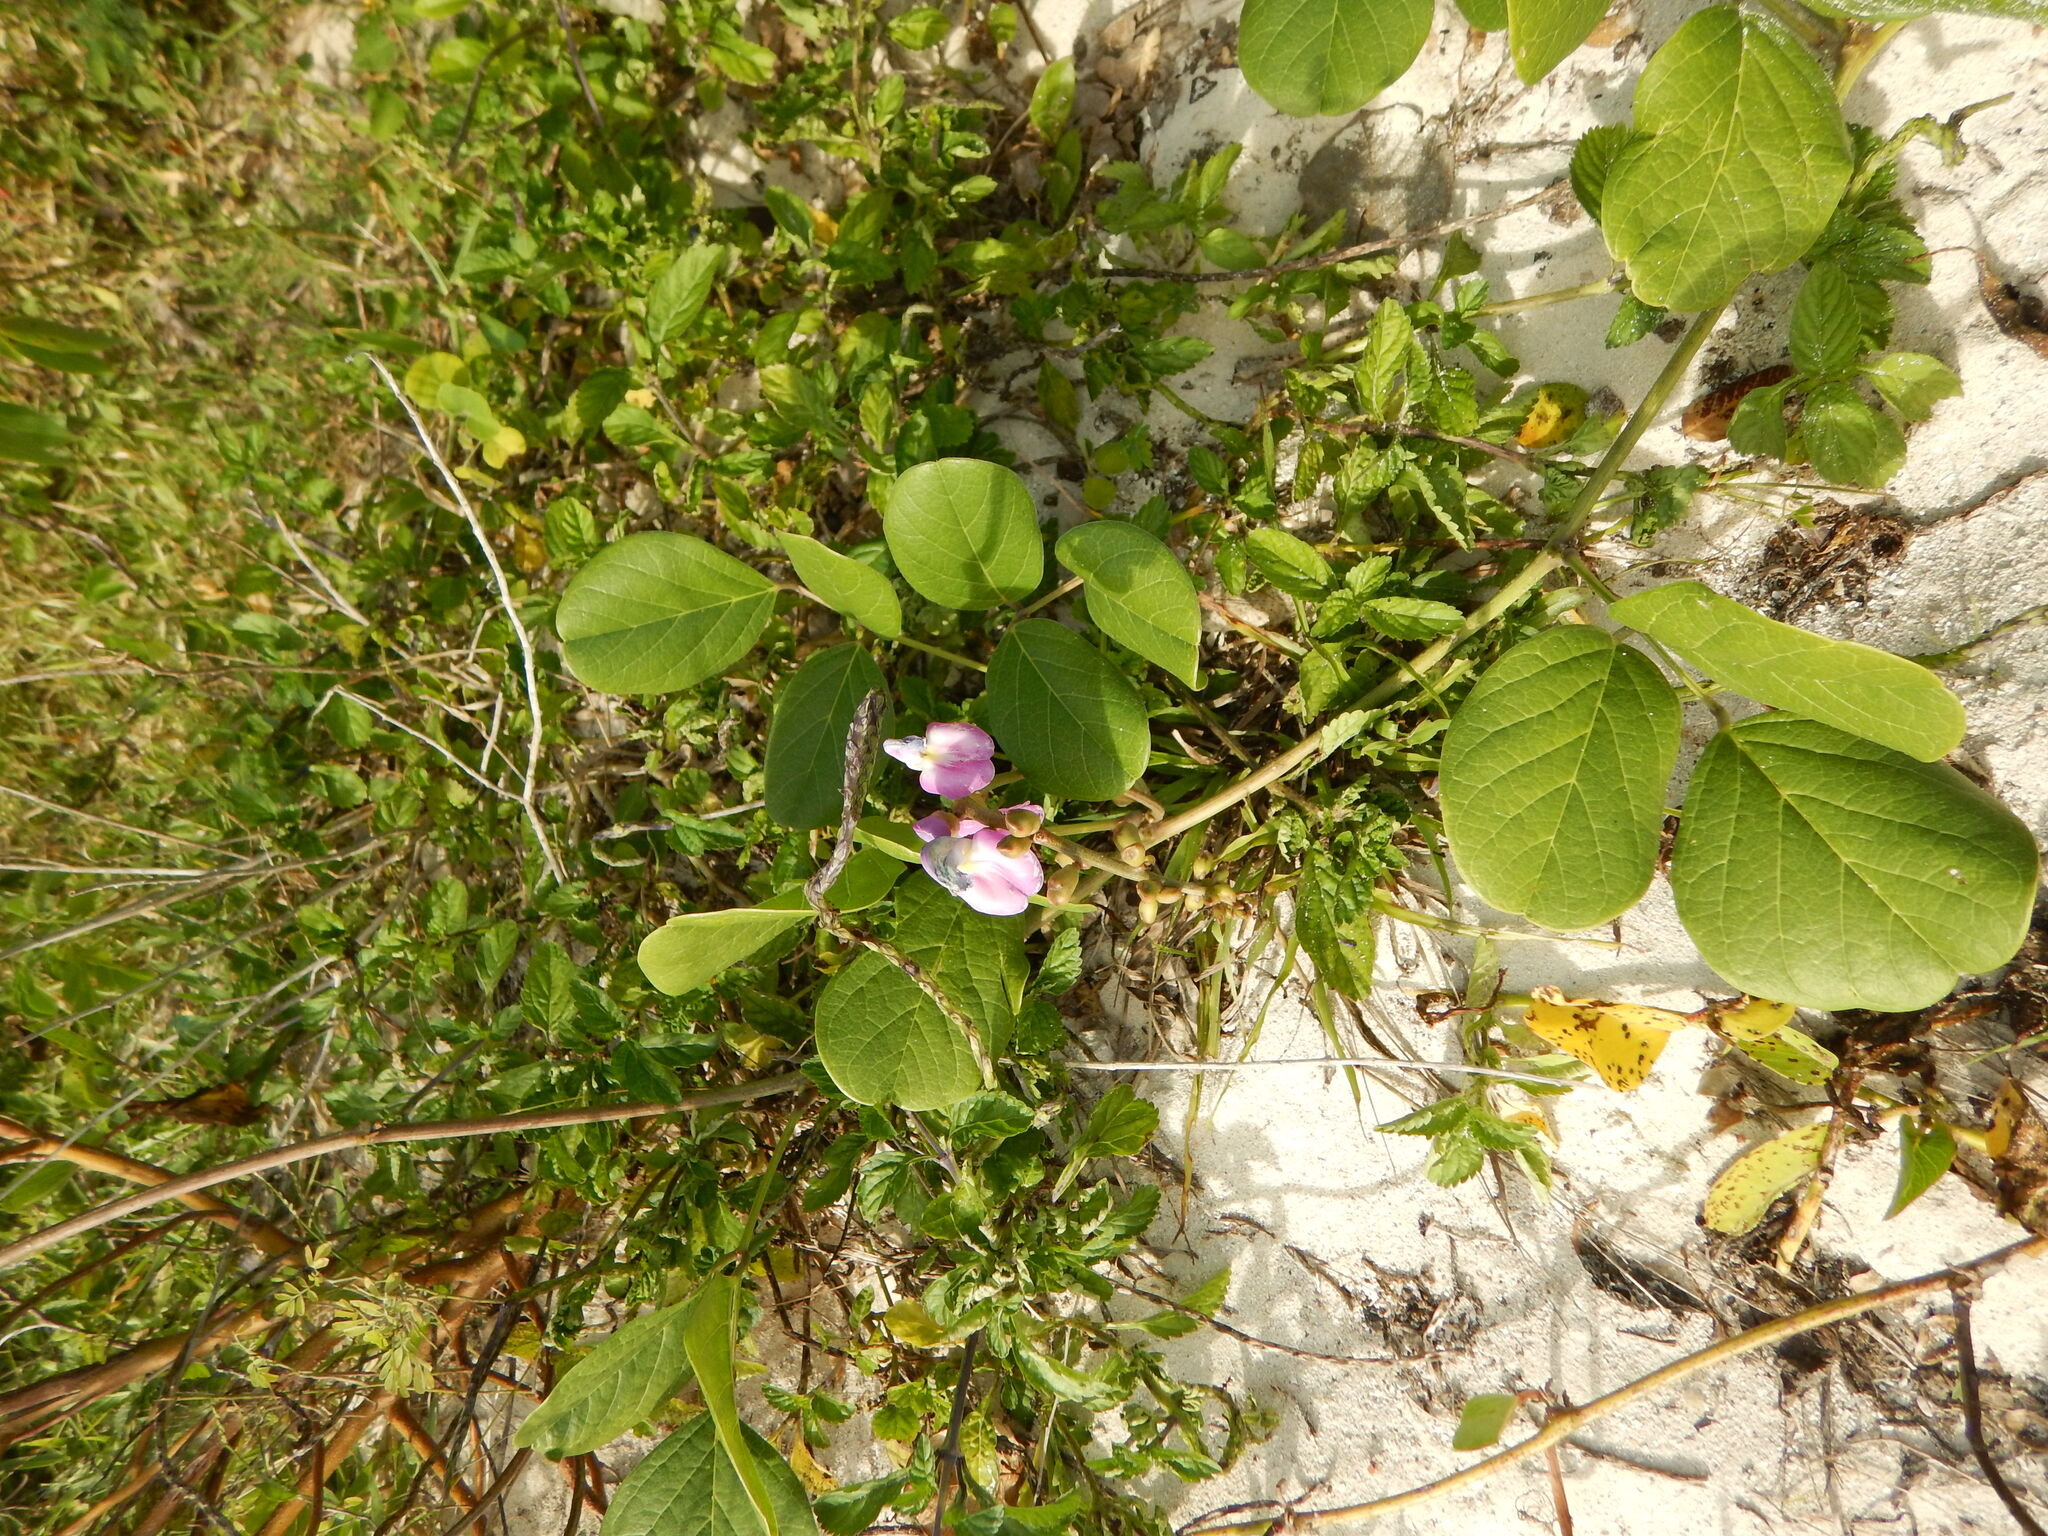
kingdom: Plantae
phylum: Tracheophyta
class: Magnoliopsida
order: Fabales
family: Fabaceae
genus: Canavalia
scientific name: Canavalia rosea
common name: Beach-bean
